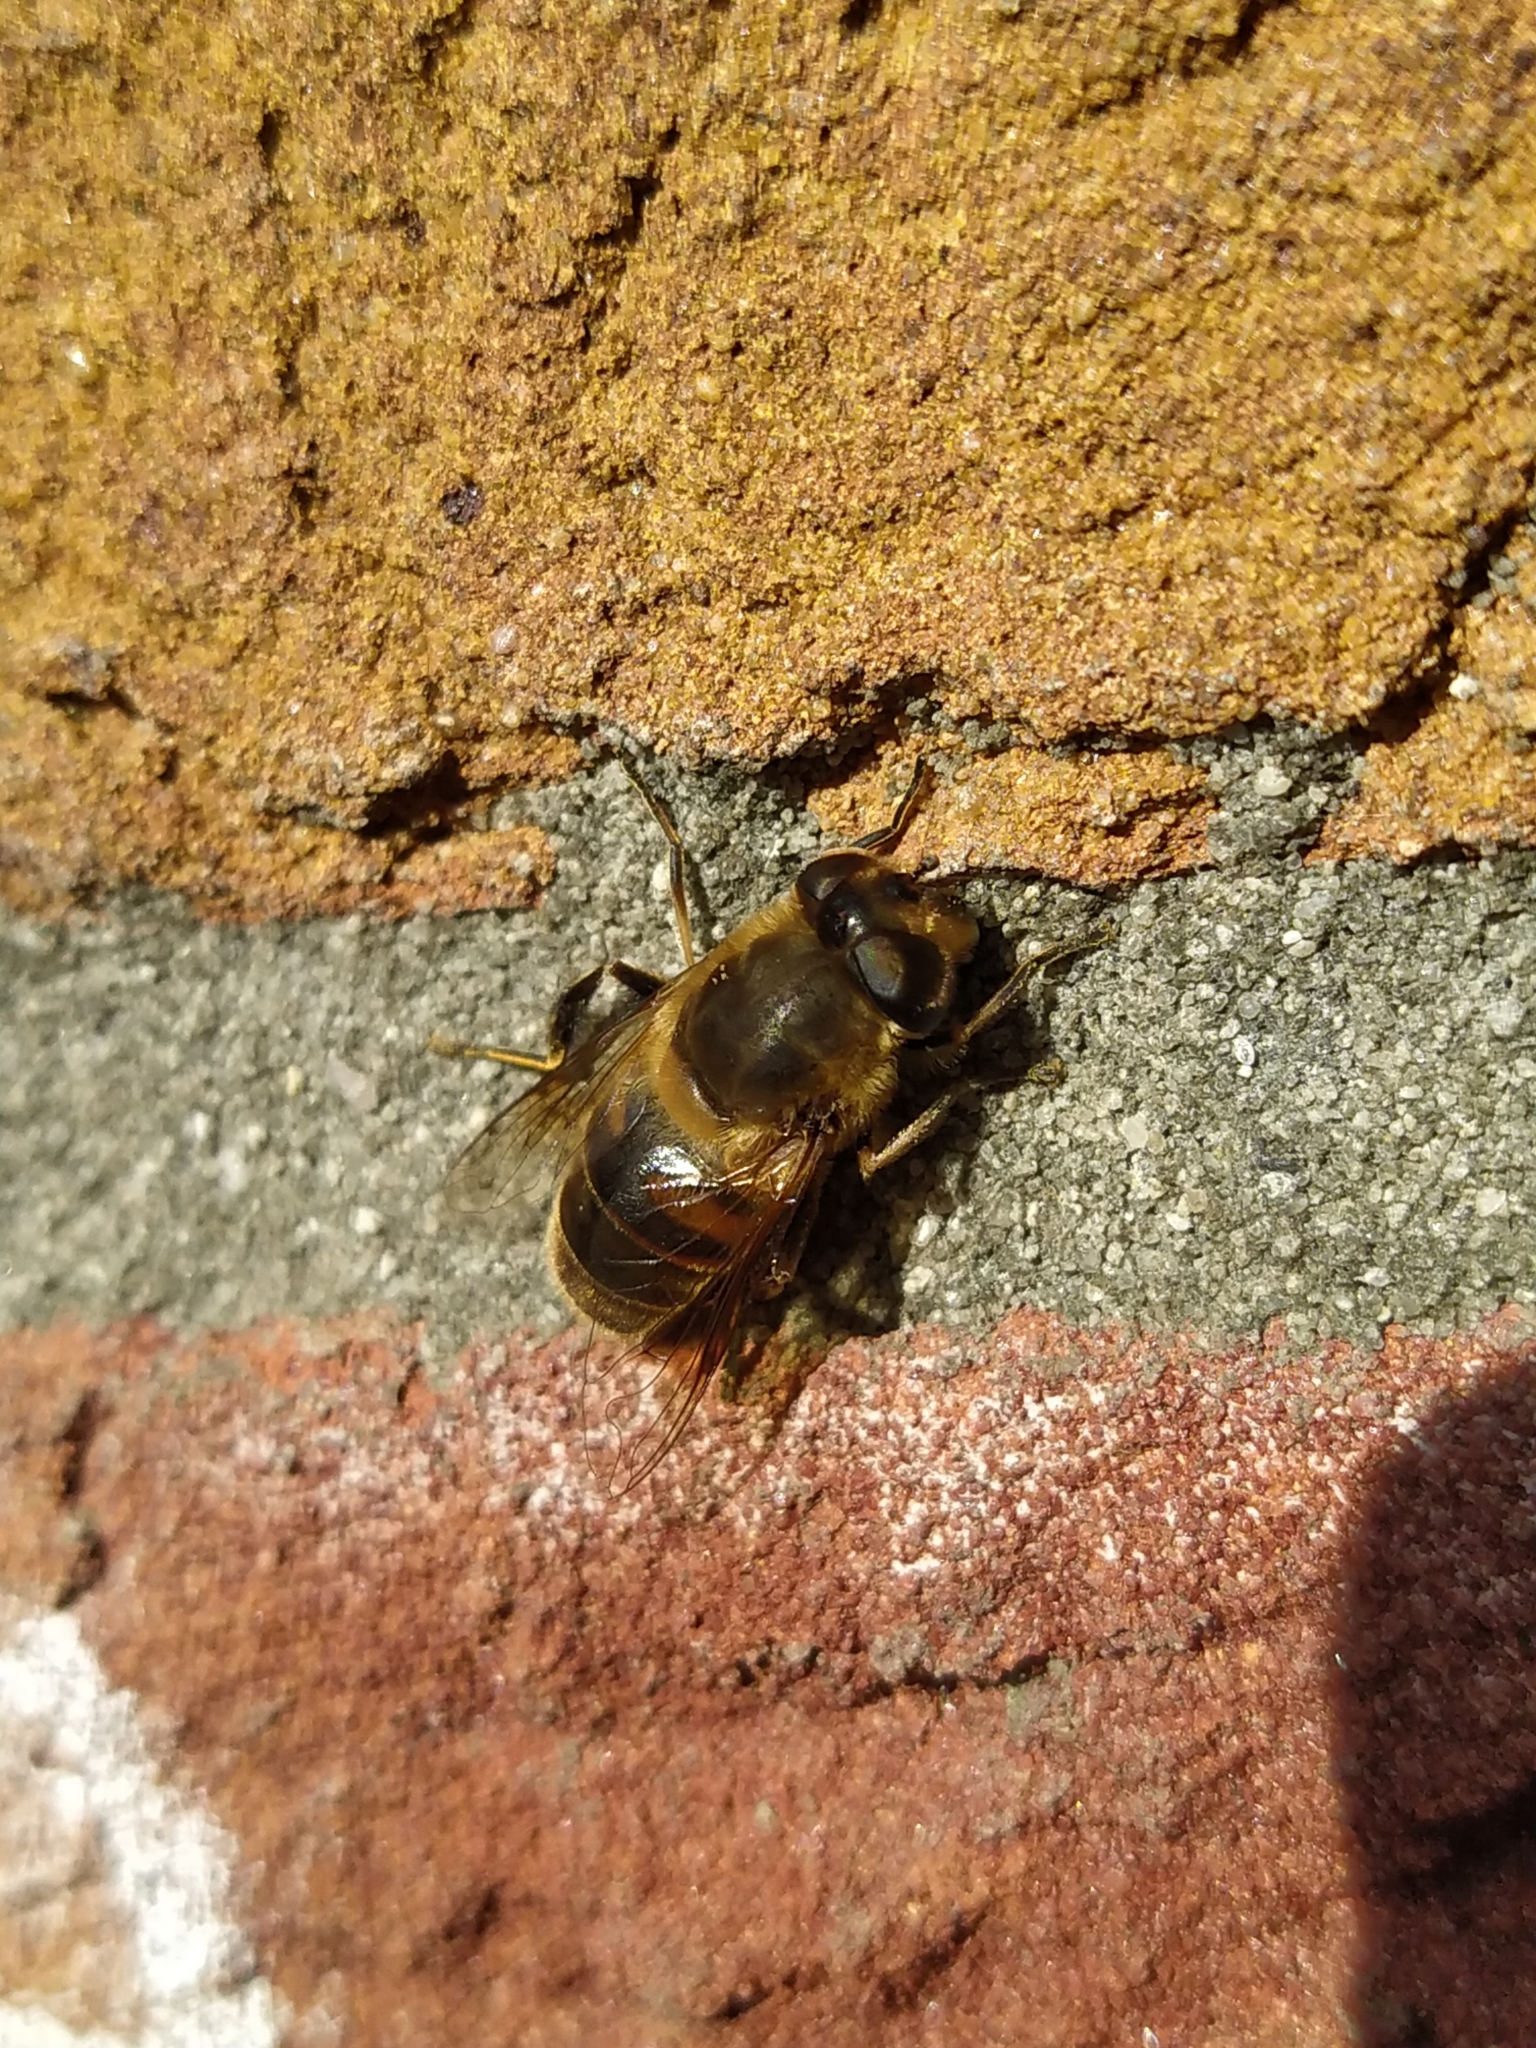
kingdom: Animalia
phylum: Arthropoda
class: Insecta
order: Diptera
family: Syrphidae
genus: Eristalis
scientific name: Eristalis tenax
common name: Drone fly
